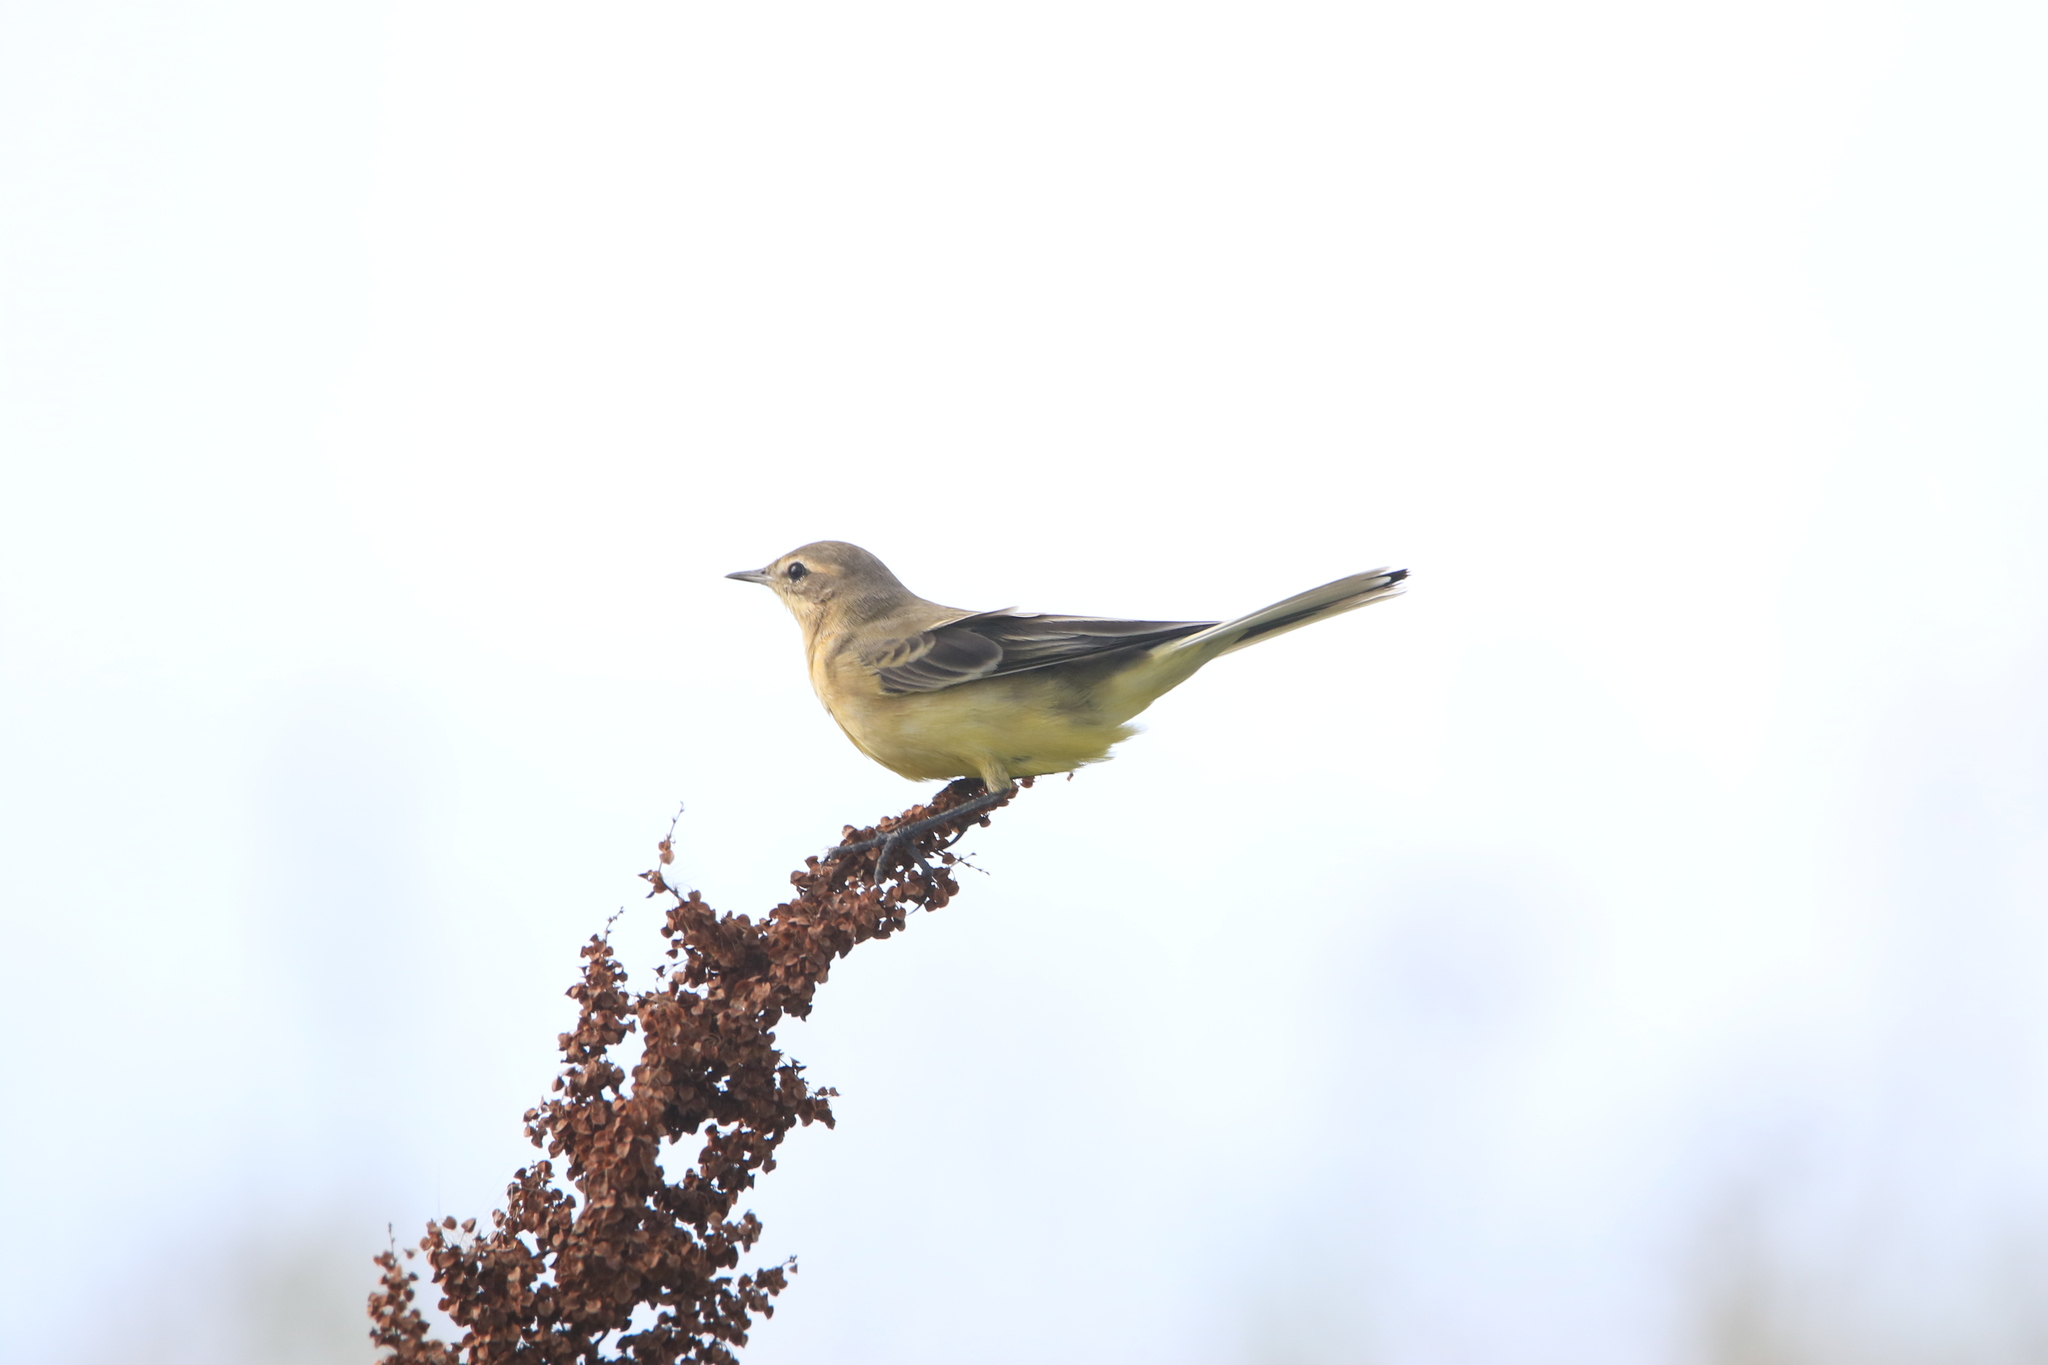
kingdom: Animalia
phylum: Chordata
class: Aves
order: Passeriformes
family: Motacillidae
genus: Motacilla
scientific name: Motacilla flava
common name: Western yellow wagtail
